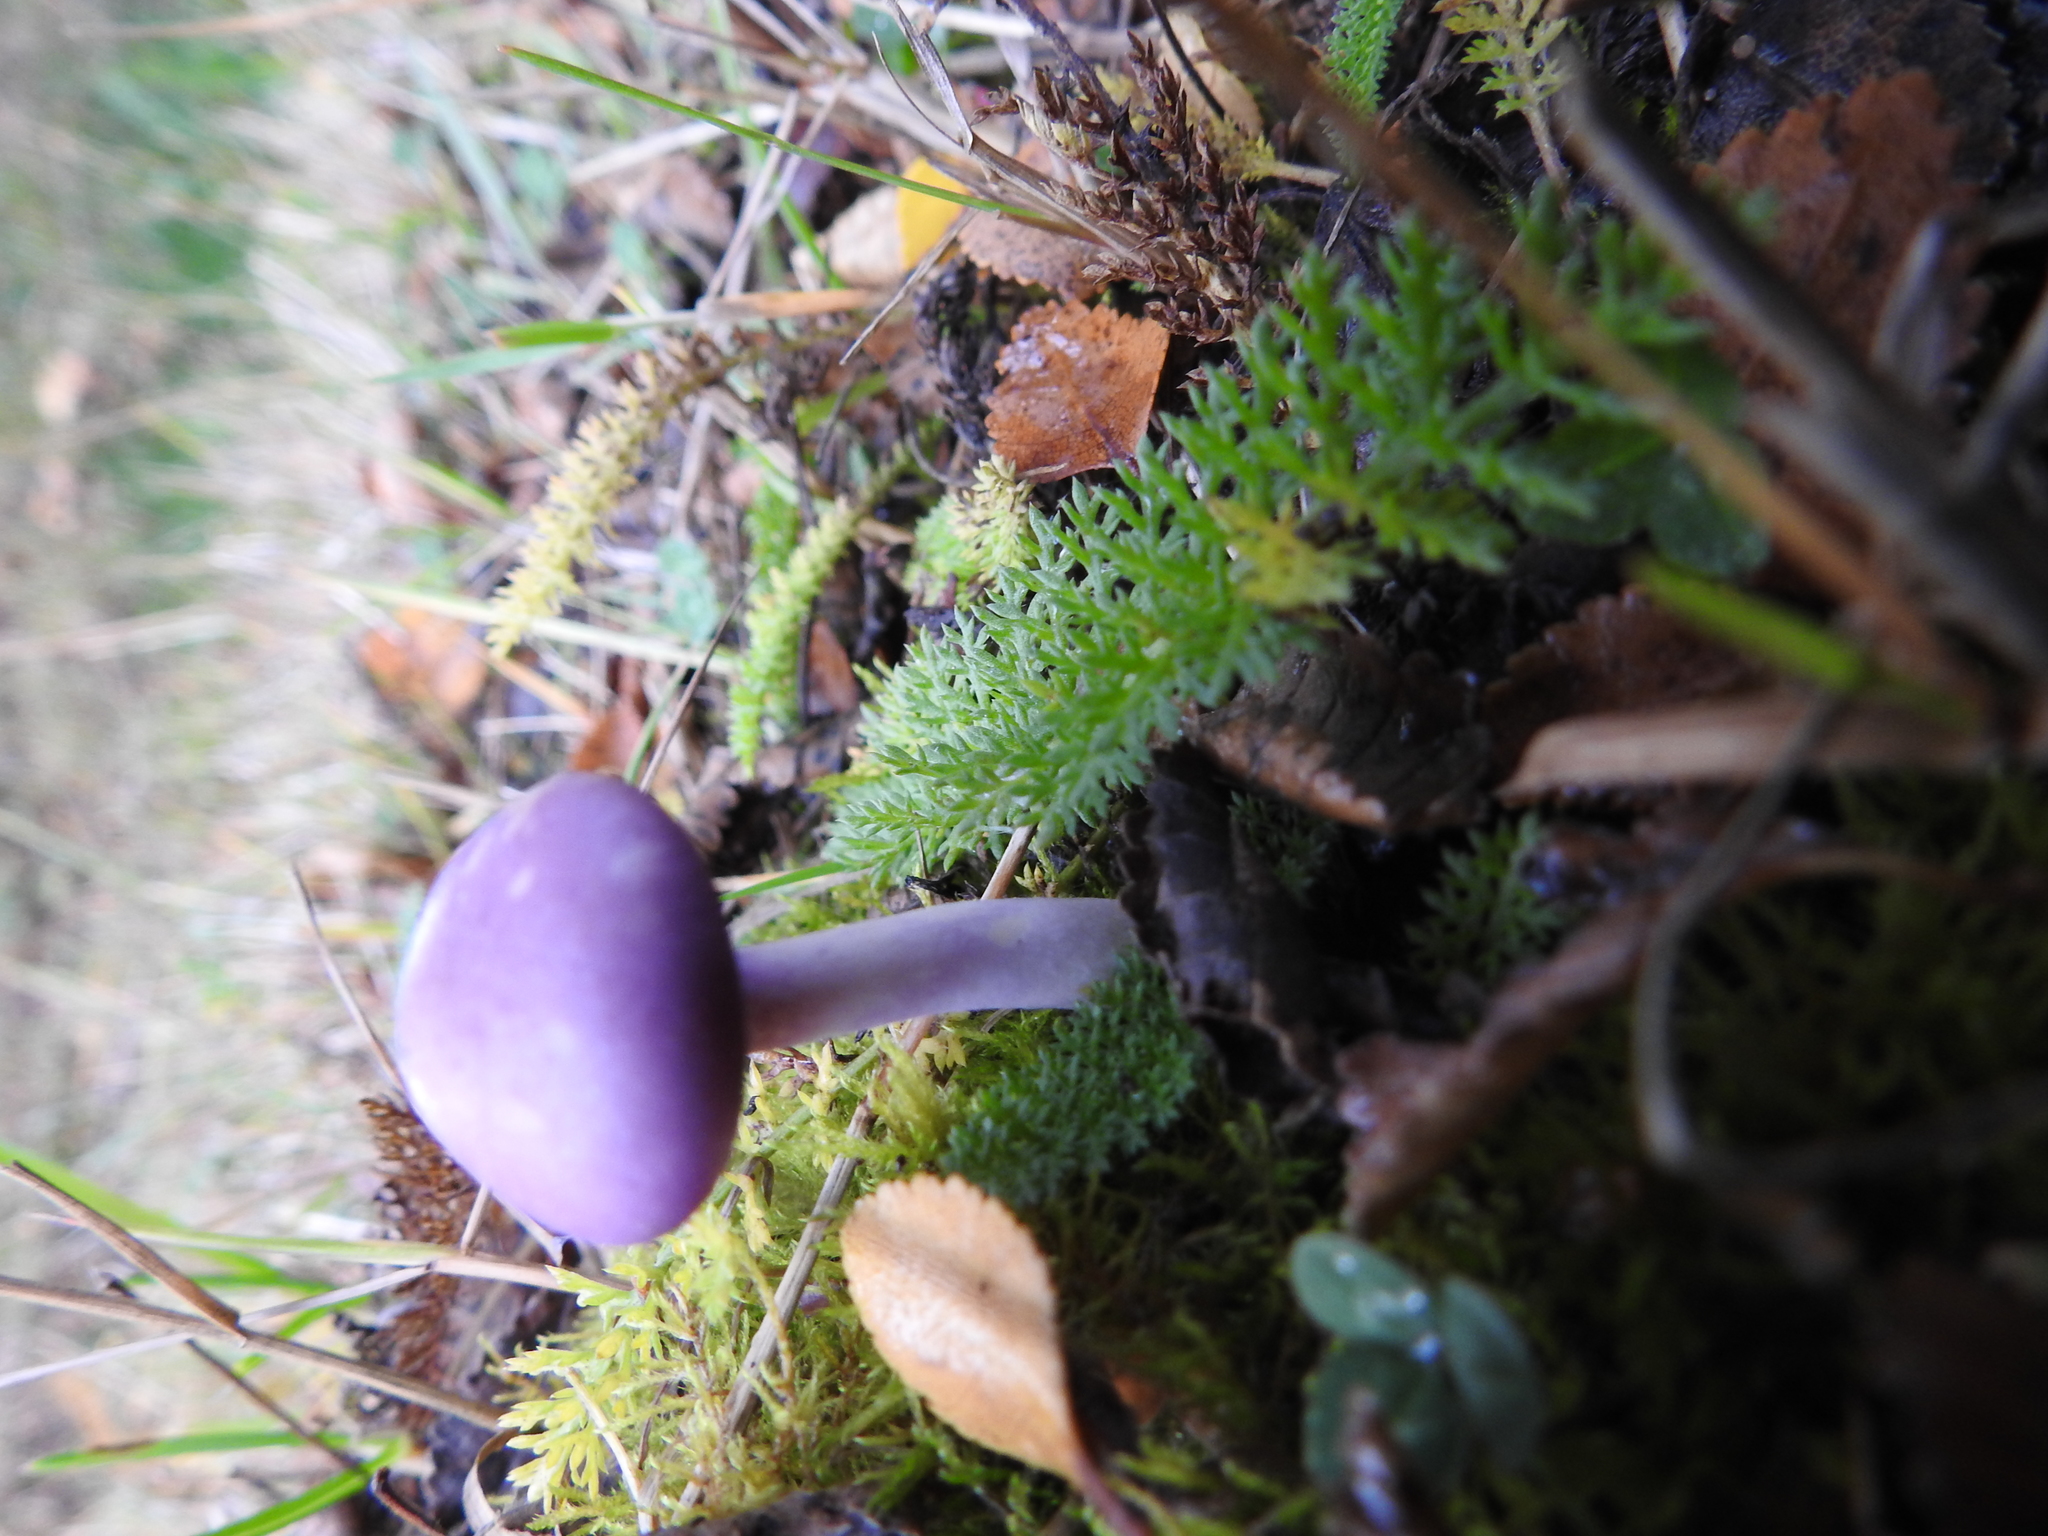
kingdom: Fungi
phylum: Basidiomycota
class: Agaricomycetes
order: Agaricales
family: Cortinariaceae
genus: Cortinarius
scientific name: Cortinarius magellanicus
